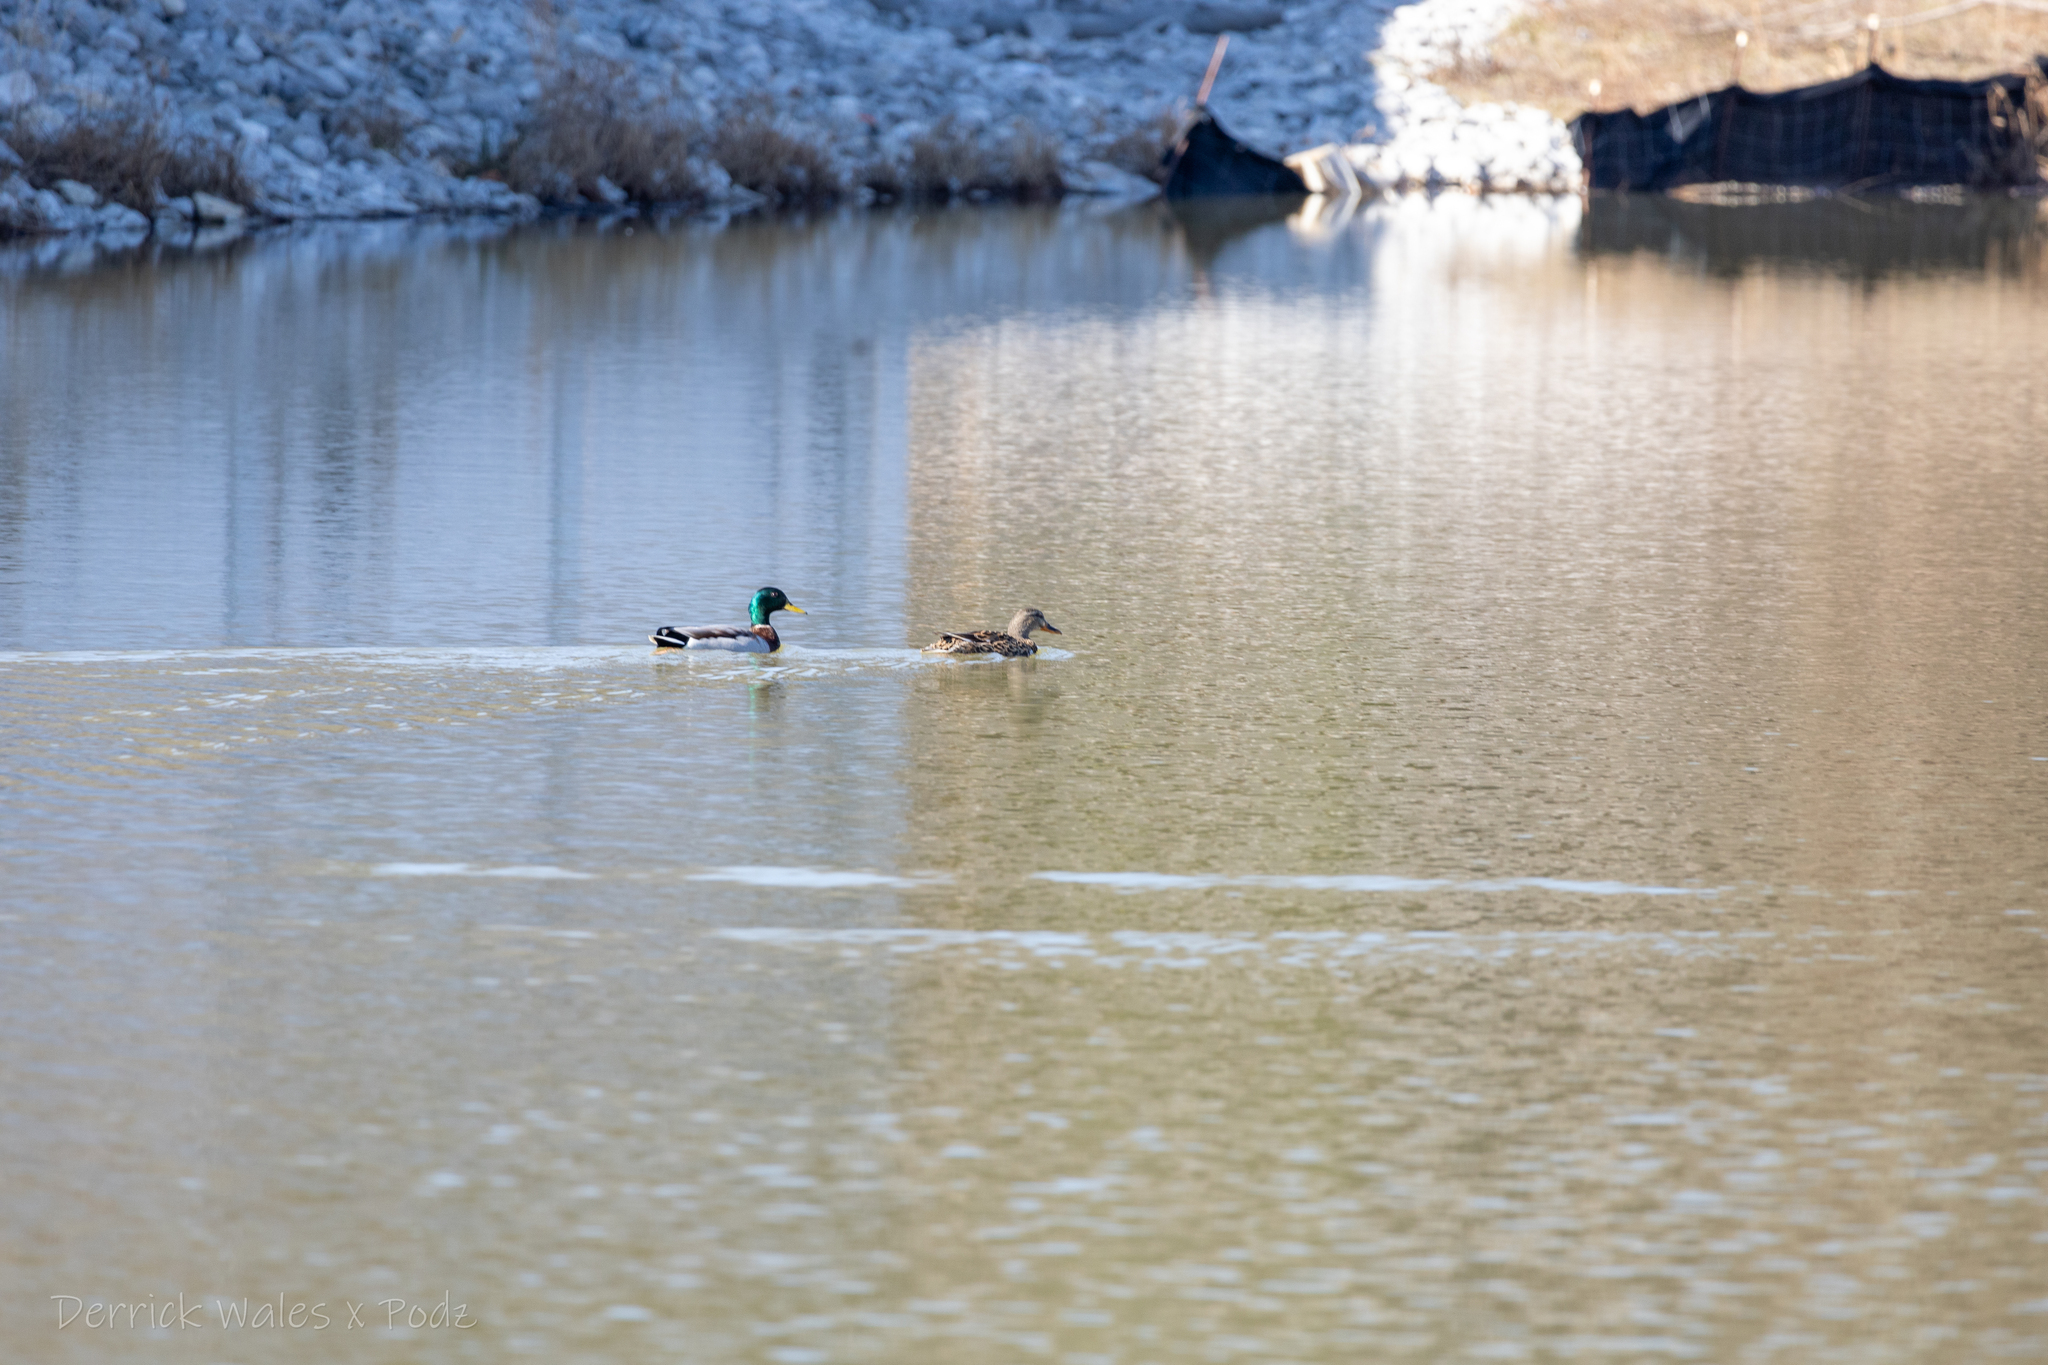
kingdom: Animalia
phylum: Chordata
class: Aves
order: Anseriformes
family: Anatidae
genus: Anas
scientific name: Anas platyrhynchos
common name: Mallard
